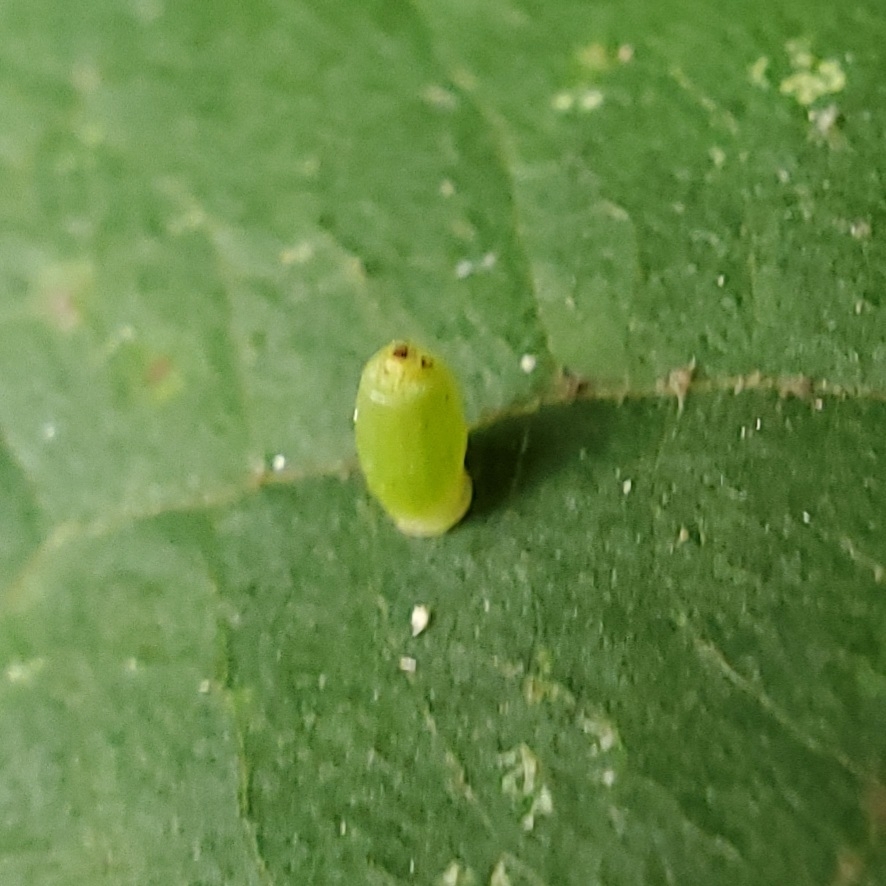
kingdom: Animalia
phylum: Arthropoda
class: Insecta
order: Diptera
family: Cecidomyiidae
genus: Caryomyia
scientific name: Caryomyia urnula
